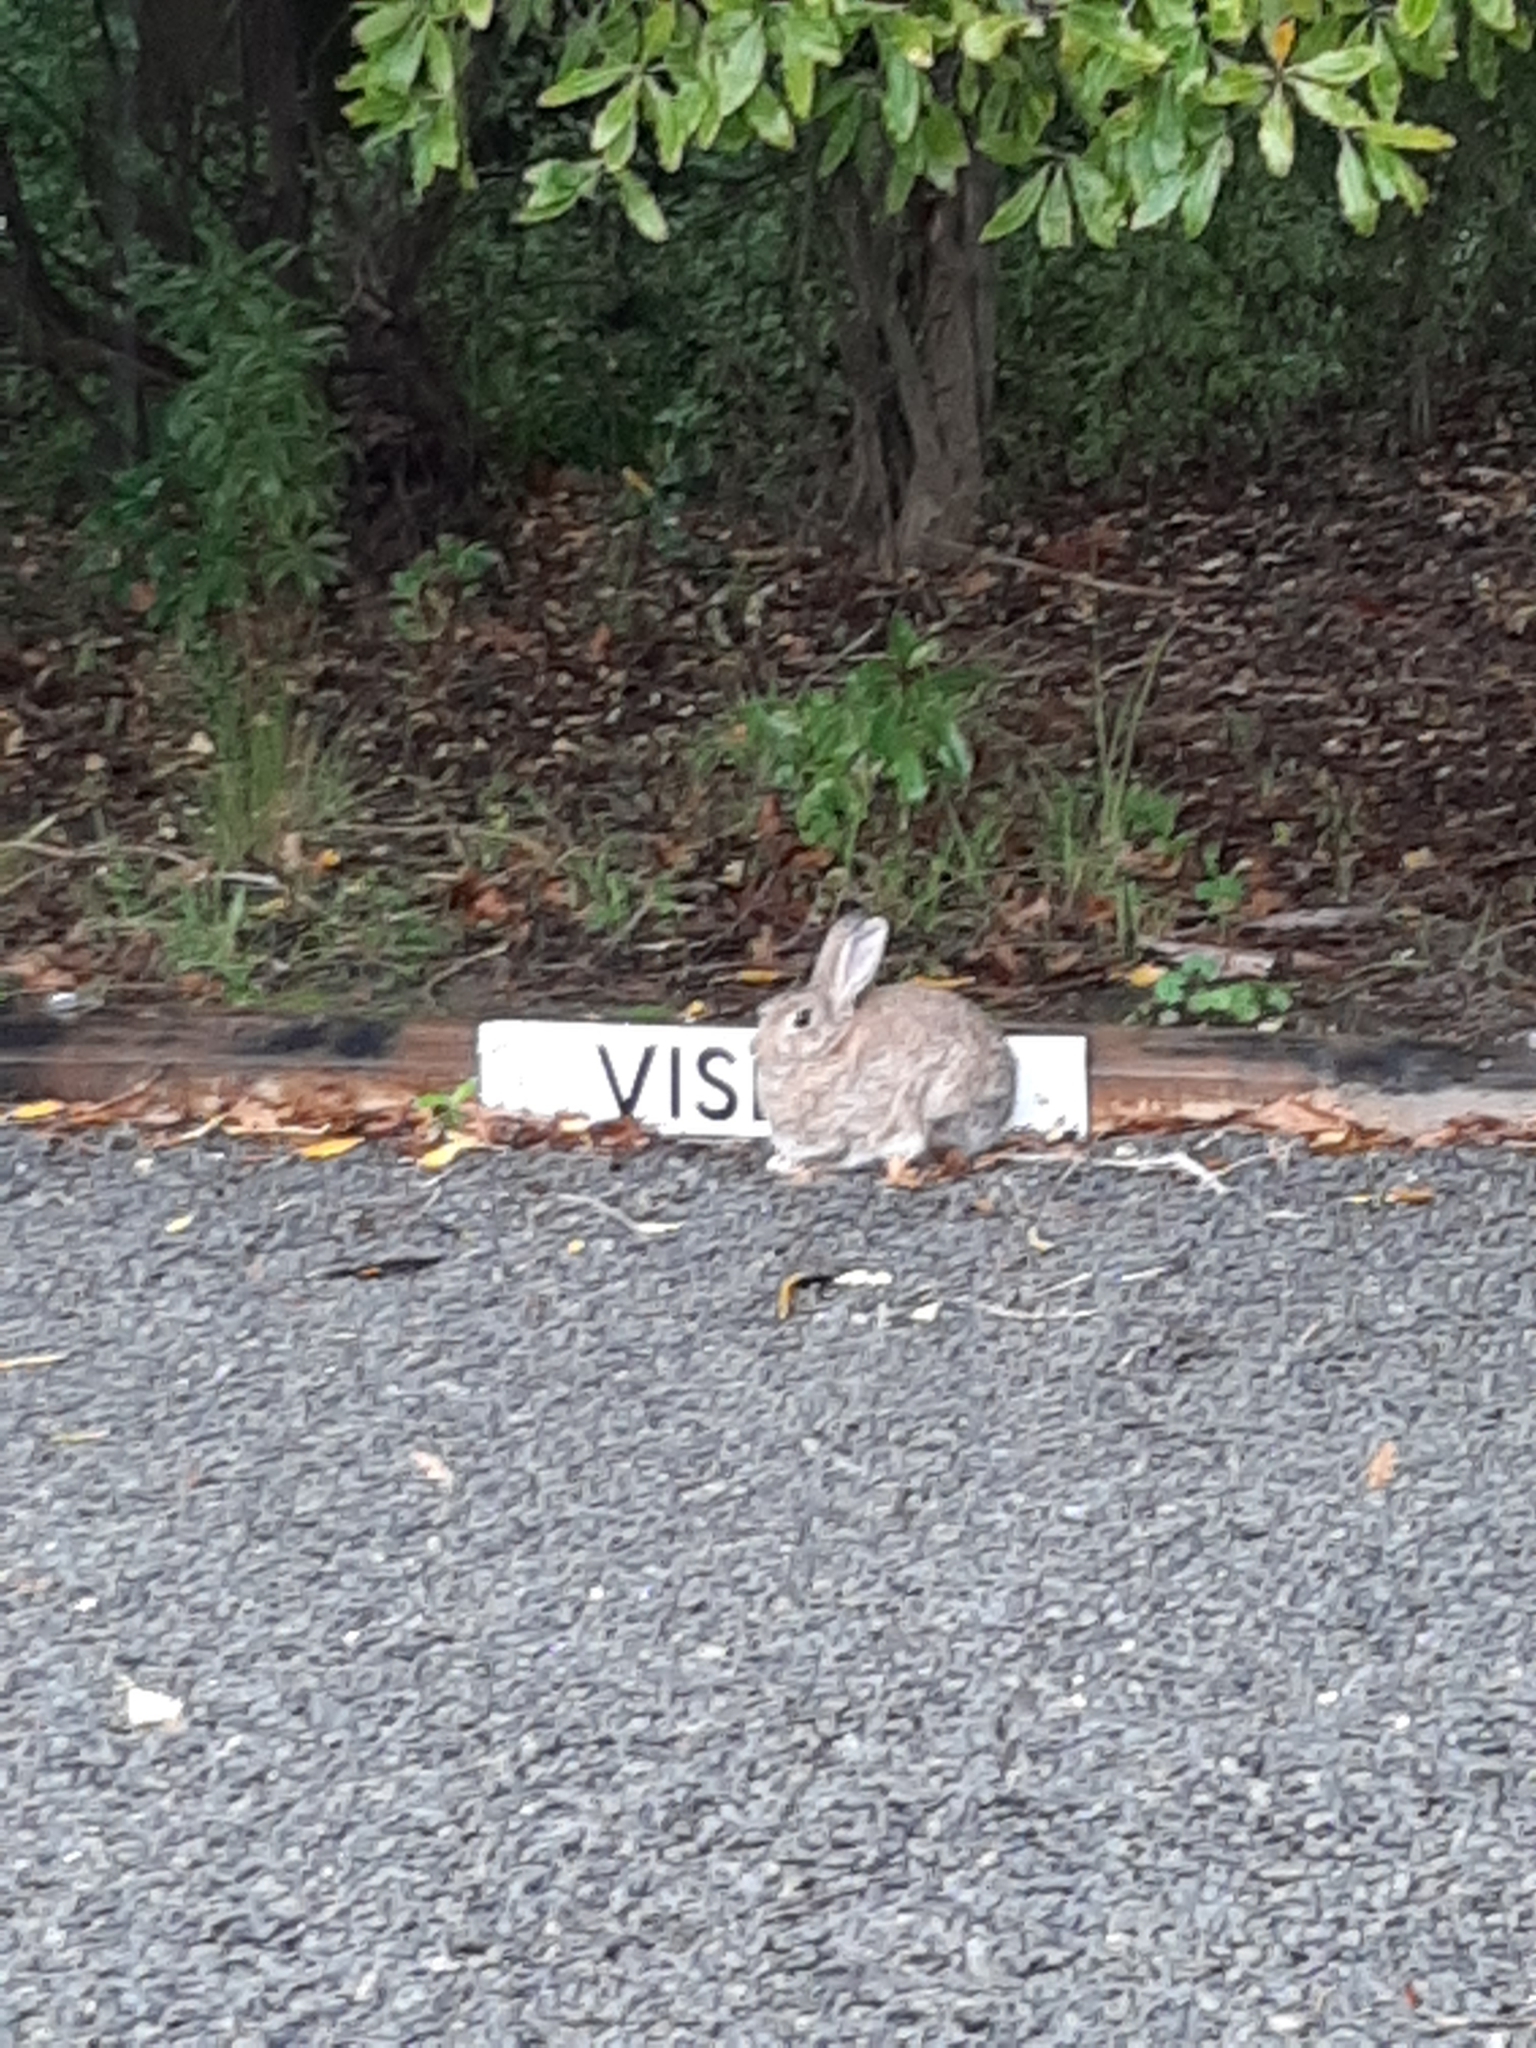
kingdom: Animalia
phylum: Chordata
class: Mammalia
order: Lagomorpha
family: Leporidae
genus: Oryctolagus
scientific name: Oryctolagus cuniculus
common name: European rabbit
